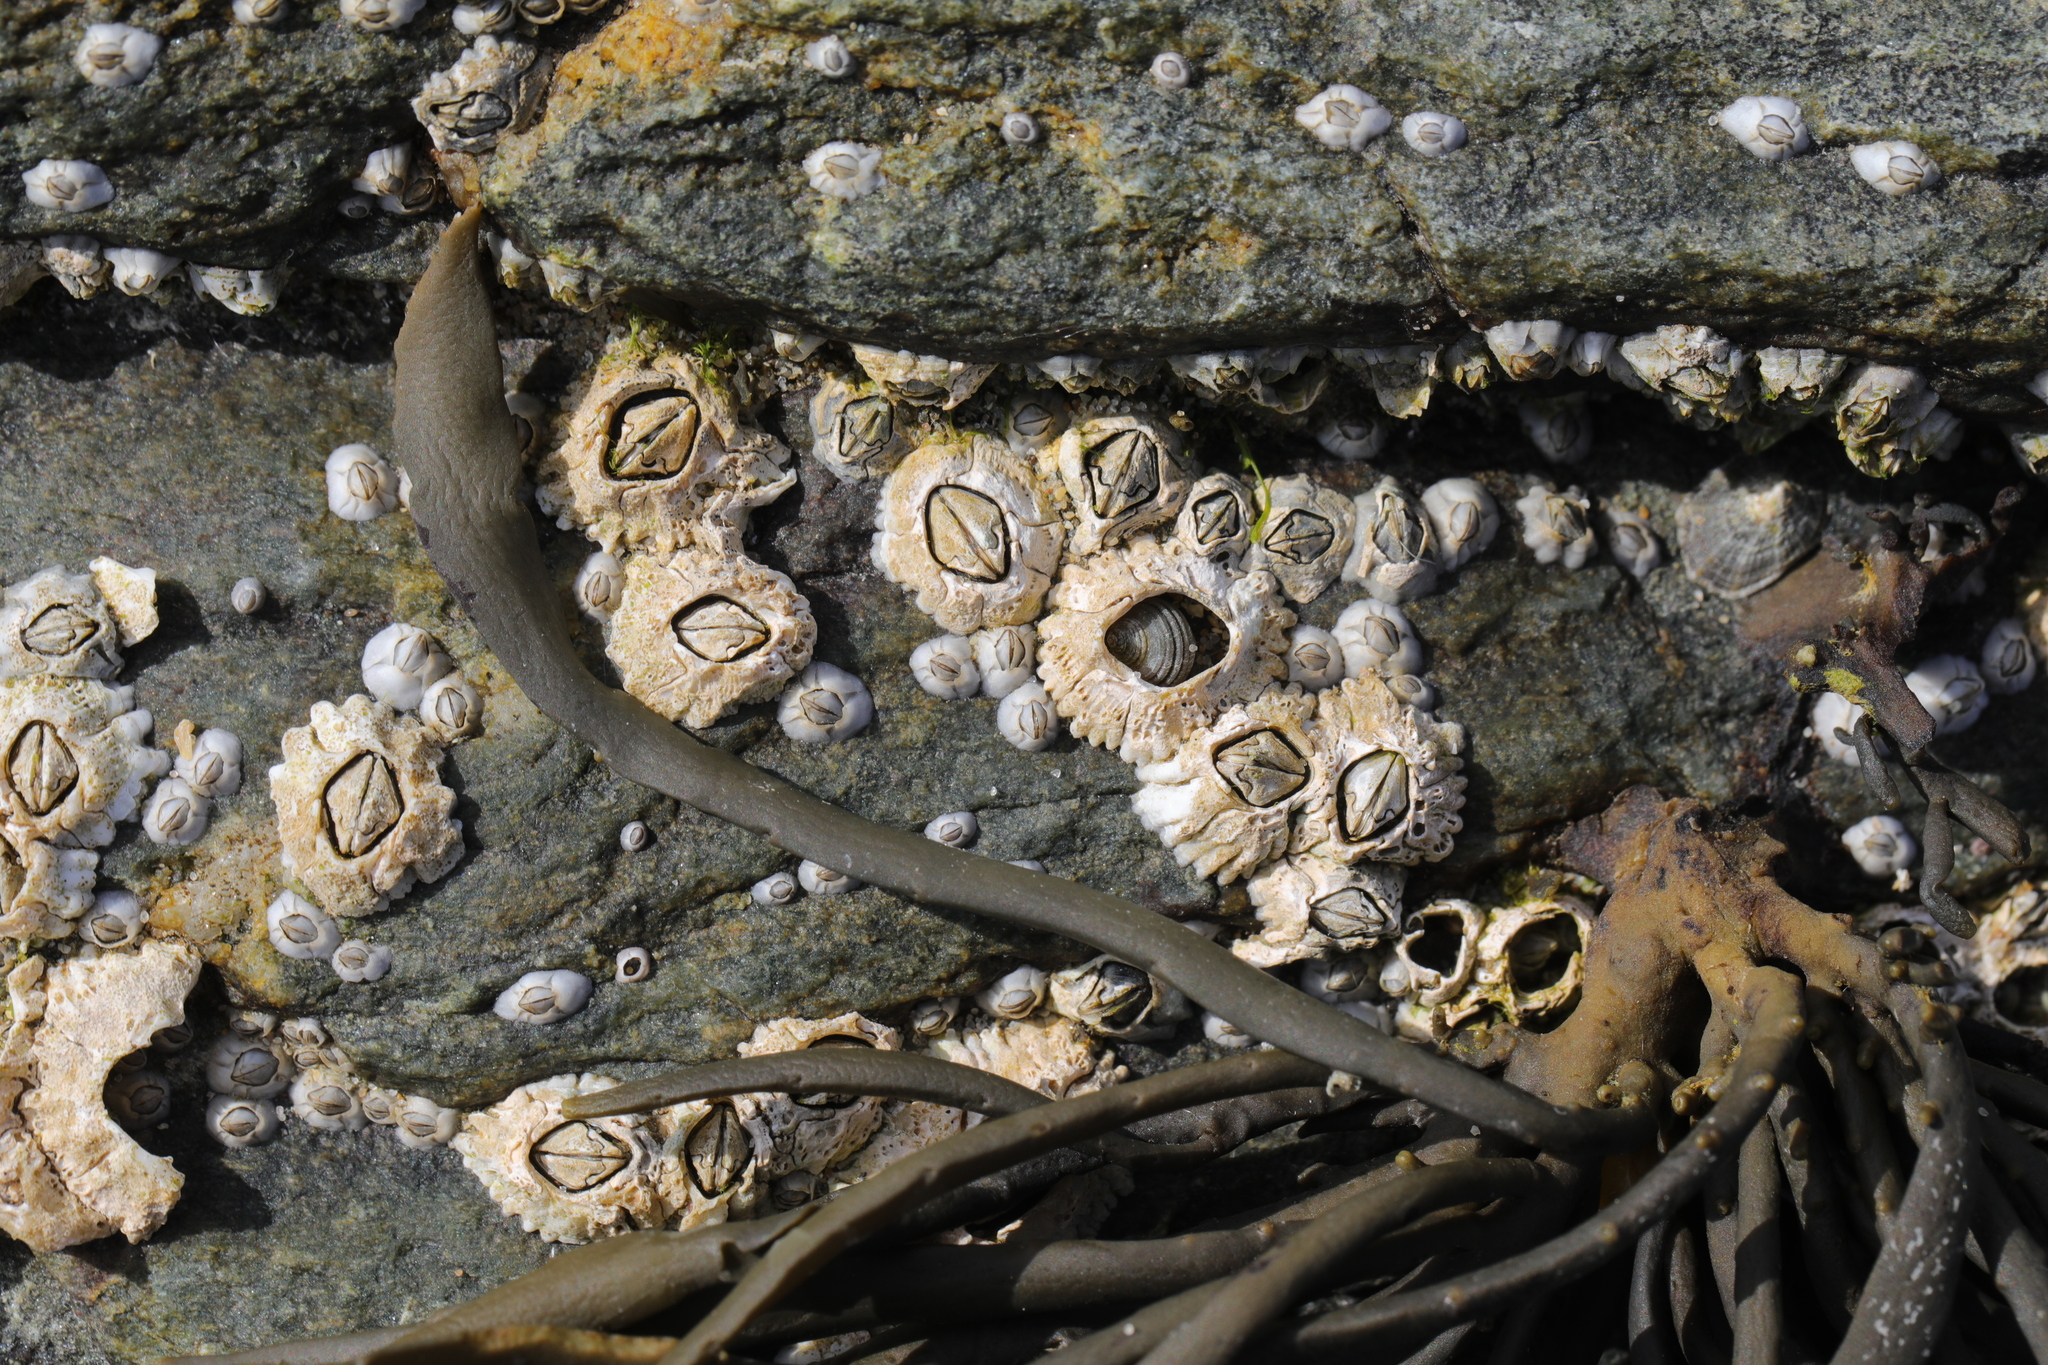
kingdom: Animalia
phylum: Arthropoda
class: Maxillopoda
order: Sessilia
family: Archaeobalanidae
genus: Semibalanus
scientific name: Semibalanus balanoides
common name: Acorn barnacle
